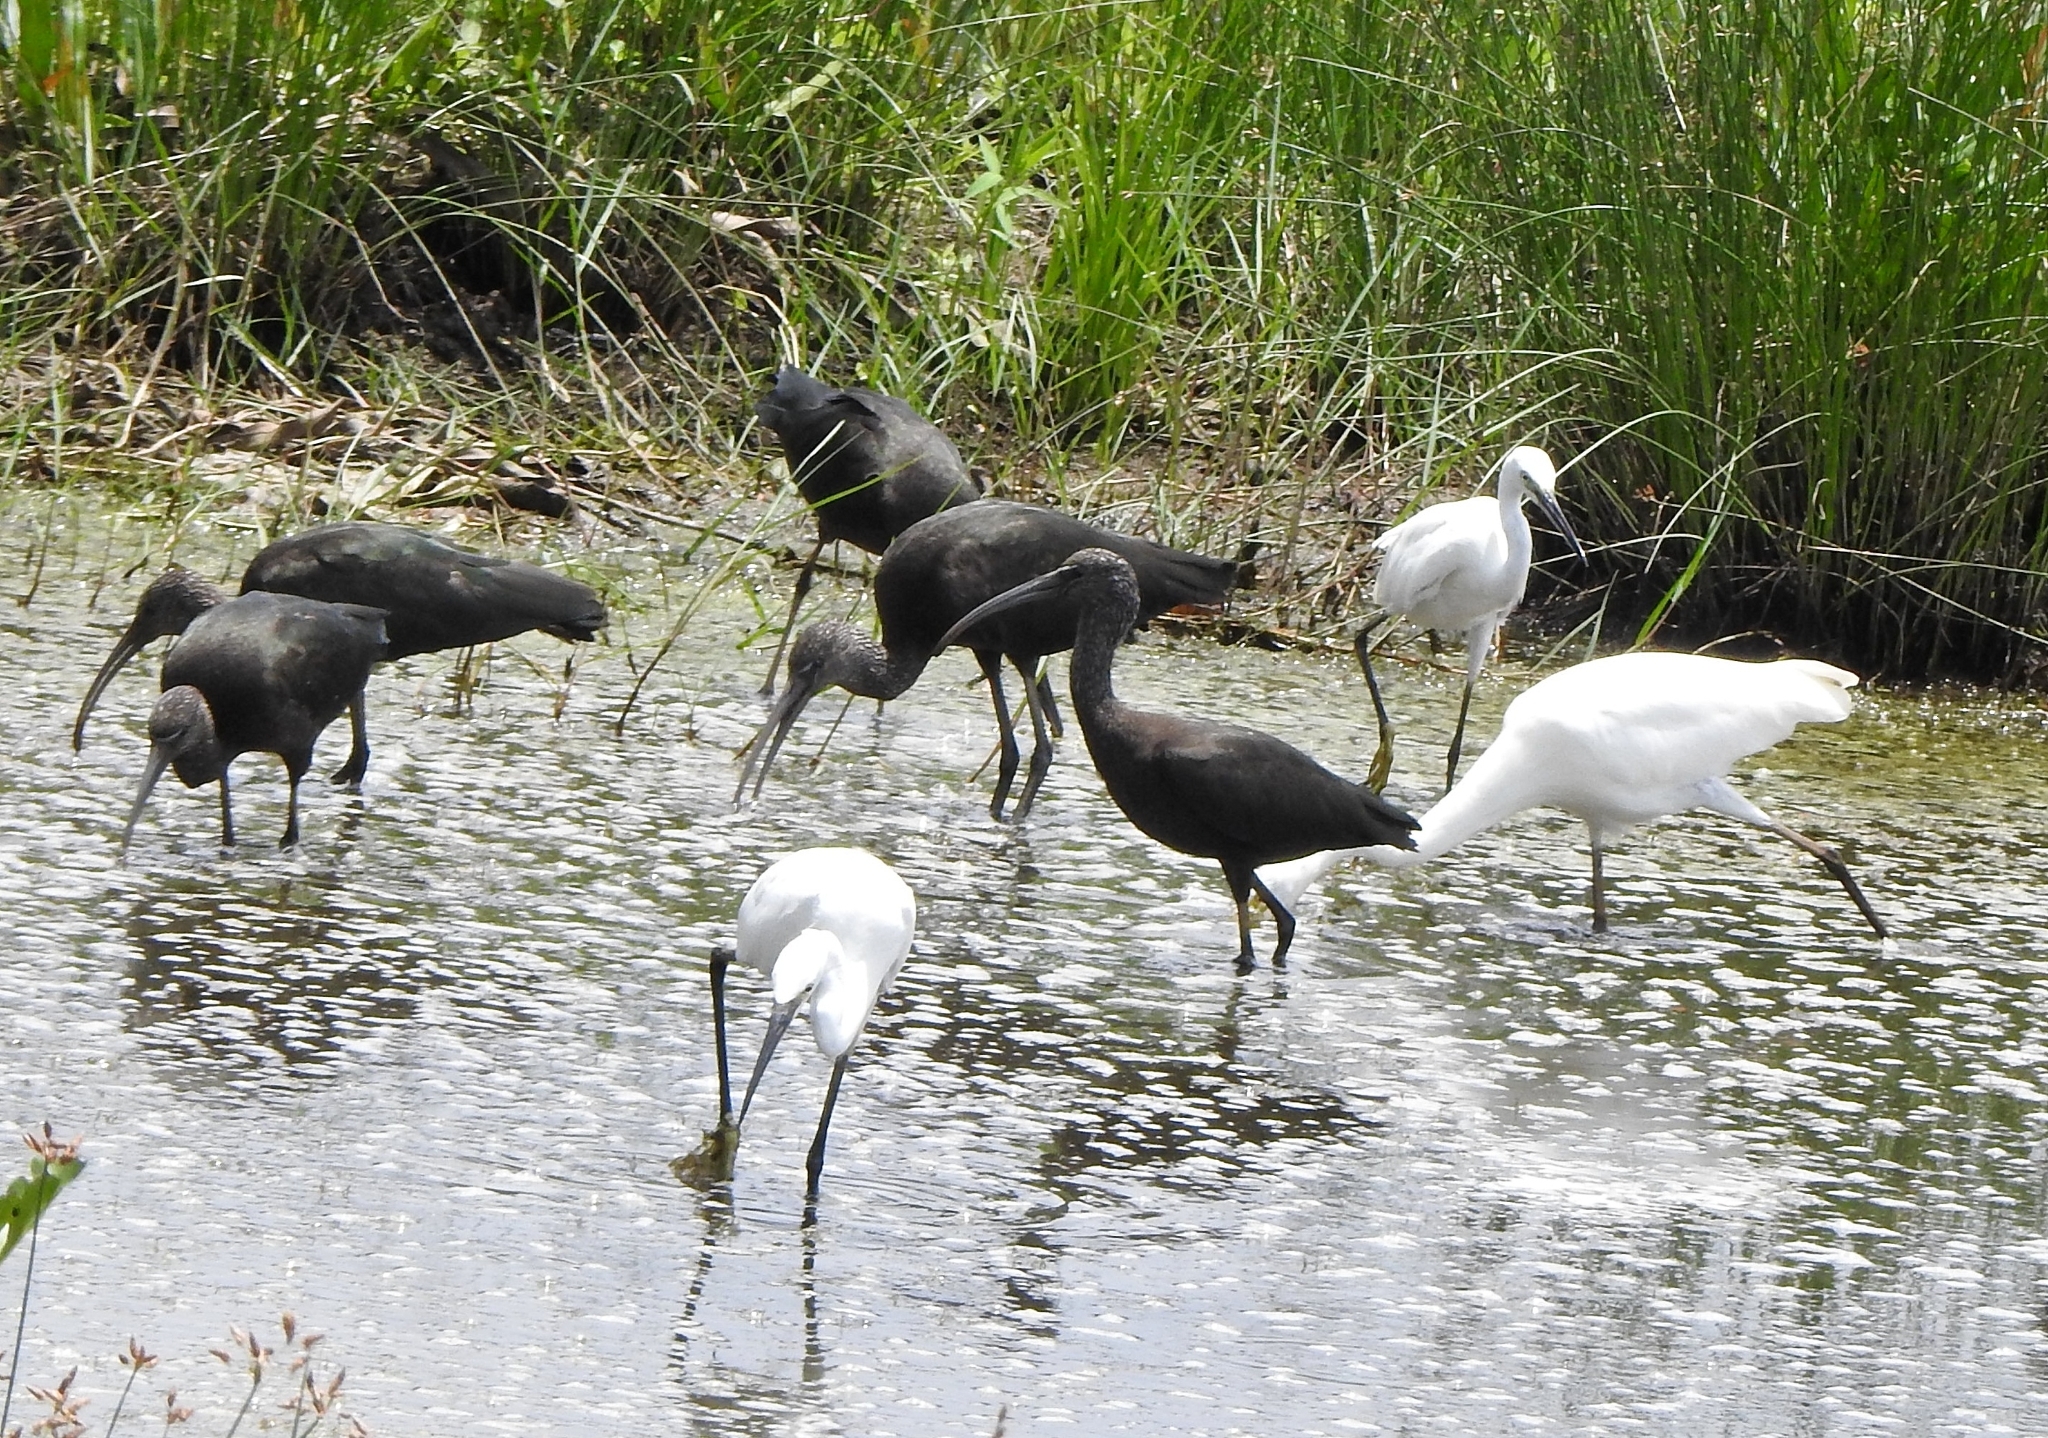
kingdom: Animalia
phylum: Chordata
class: Aves
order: Pelecaniformes
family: Threskiornithidae
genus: Plegadis
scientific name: Plegadis falcinellus
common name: Glossy ibis
